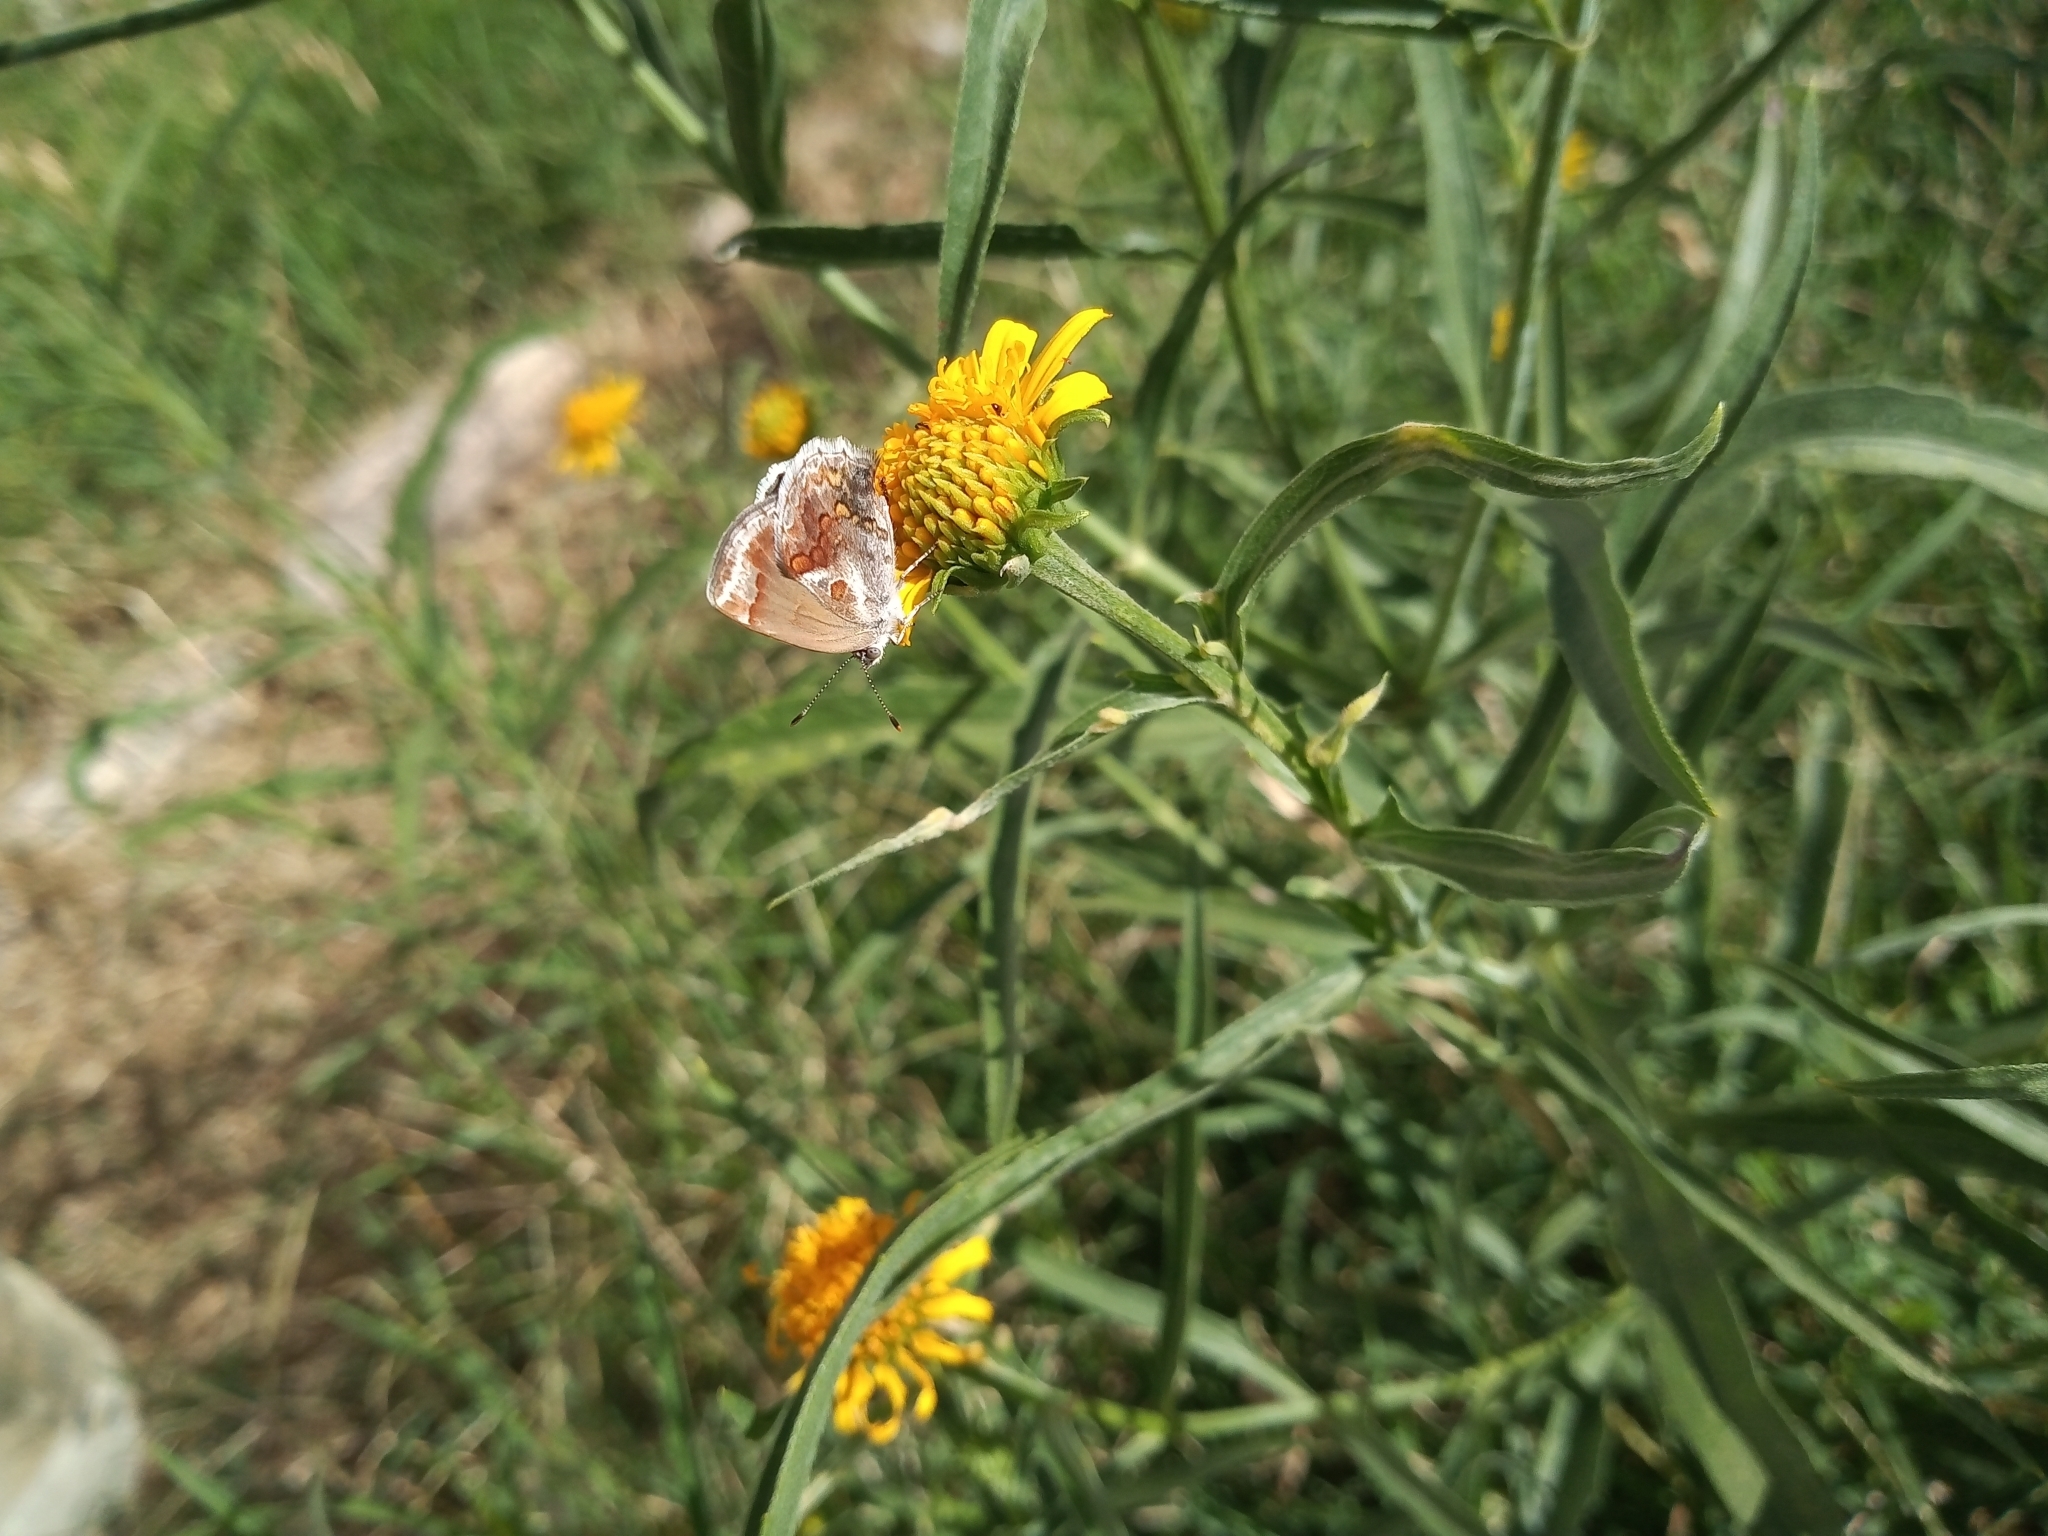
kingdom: Animalia
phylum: Arthropoda
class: Insecta
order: Lepidoptera
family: Lycaenidae
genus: Strymon
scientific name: Strymon bazochii
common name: Lantana scrub-hairstreak
